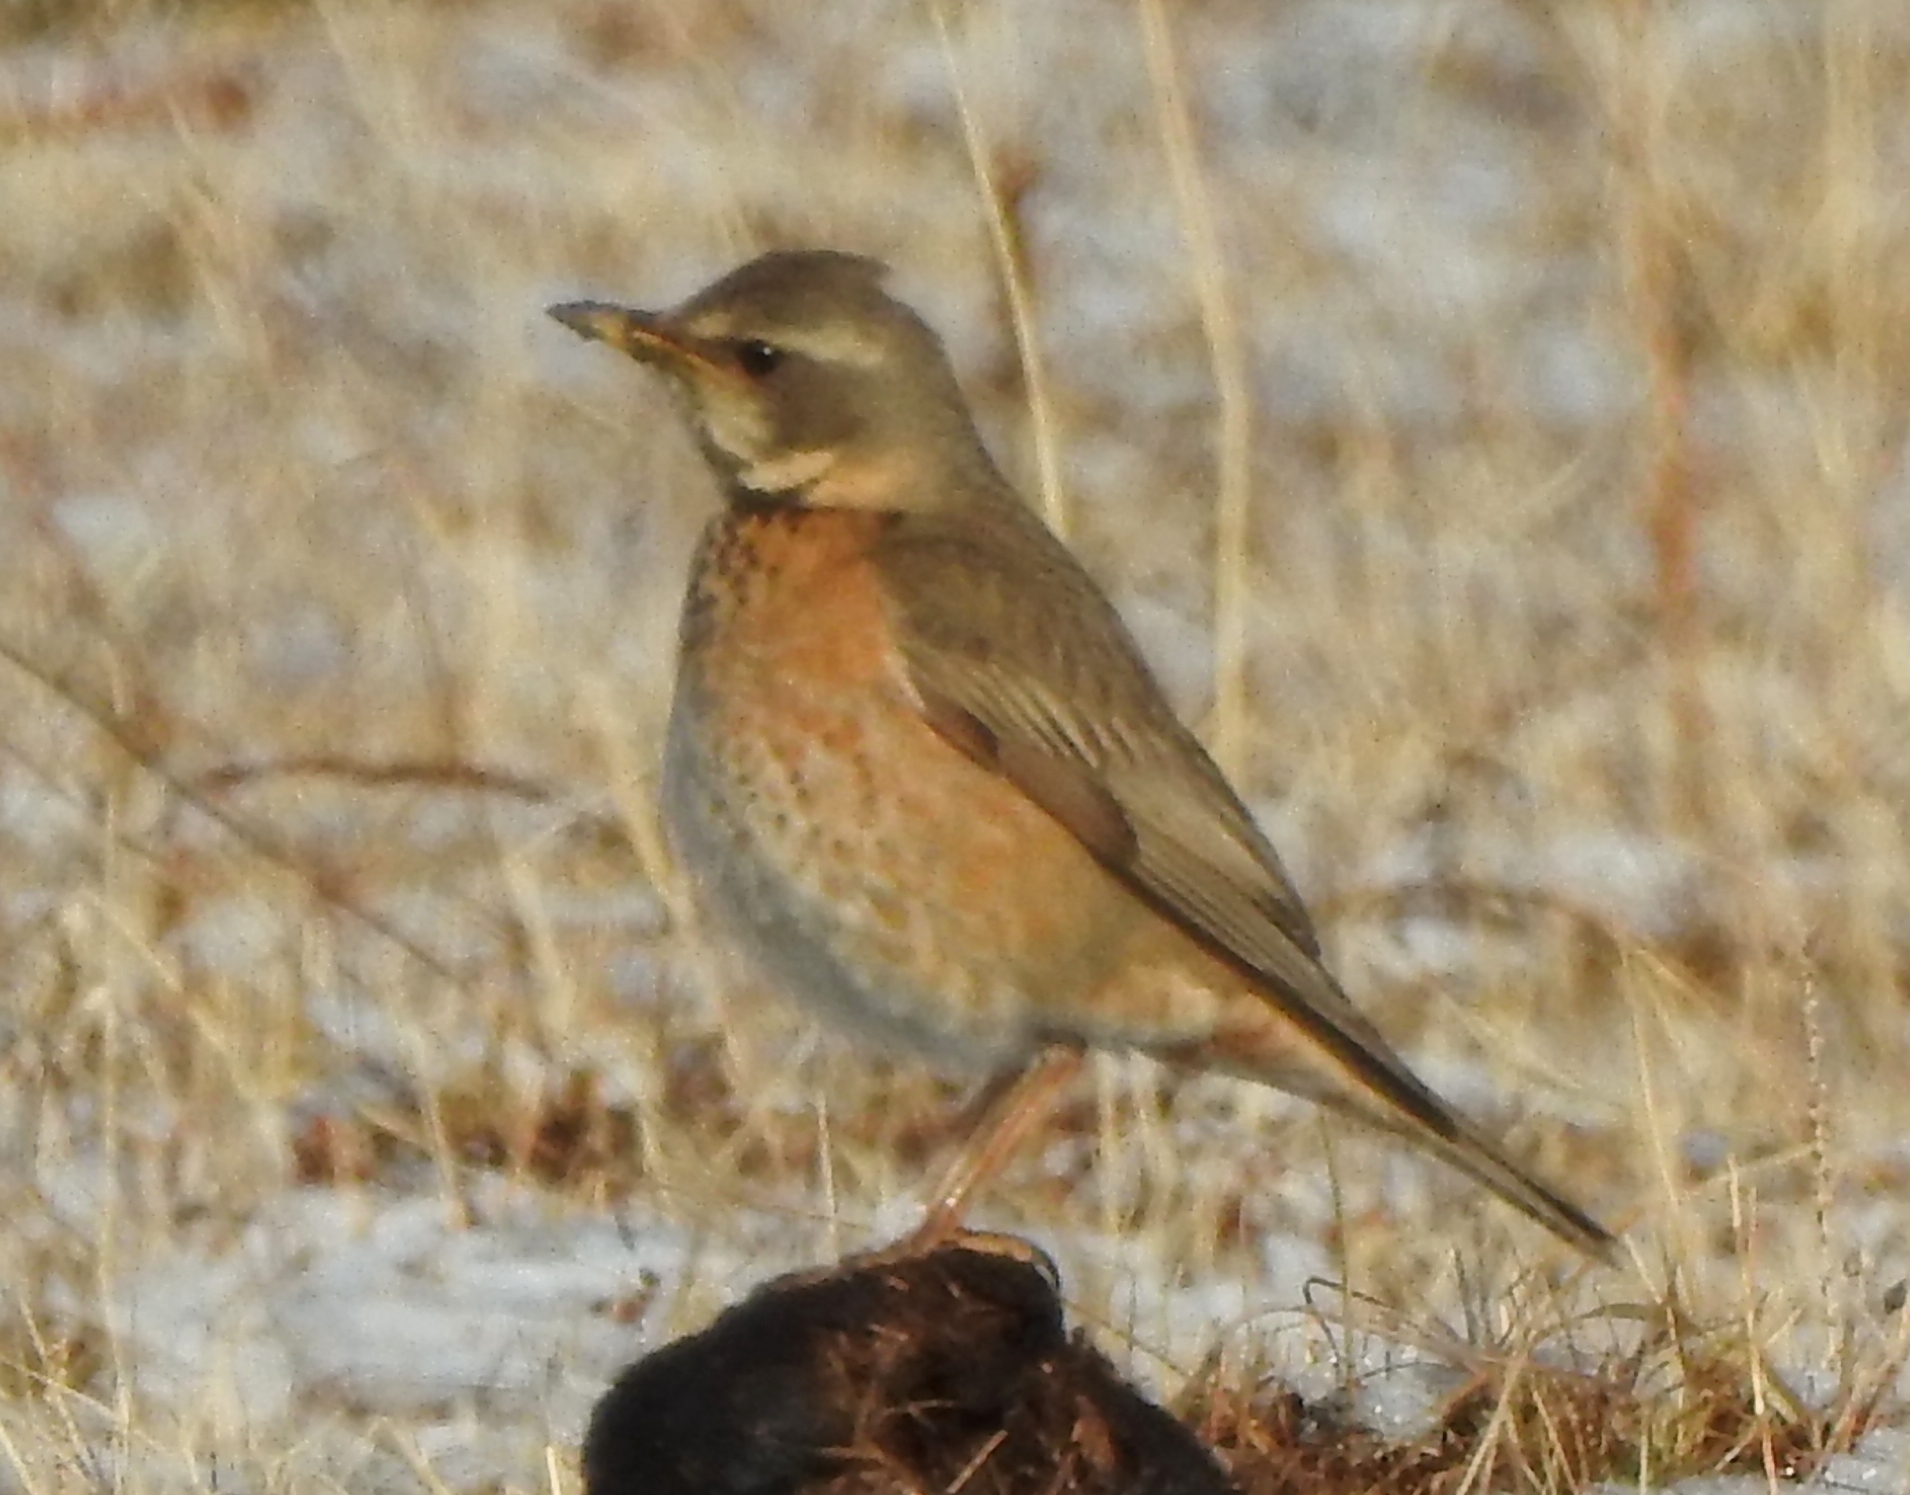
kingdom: Animalia
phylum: Chordata
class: Aves
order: Passeriformes
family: Turdidae
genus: Turdus
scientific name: Turdus
